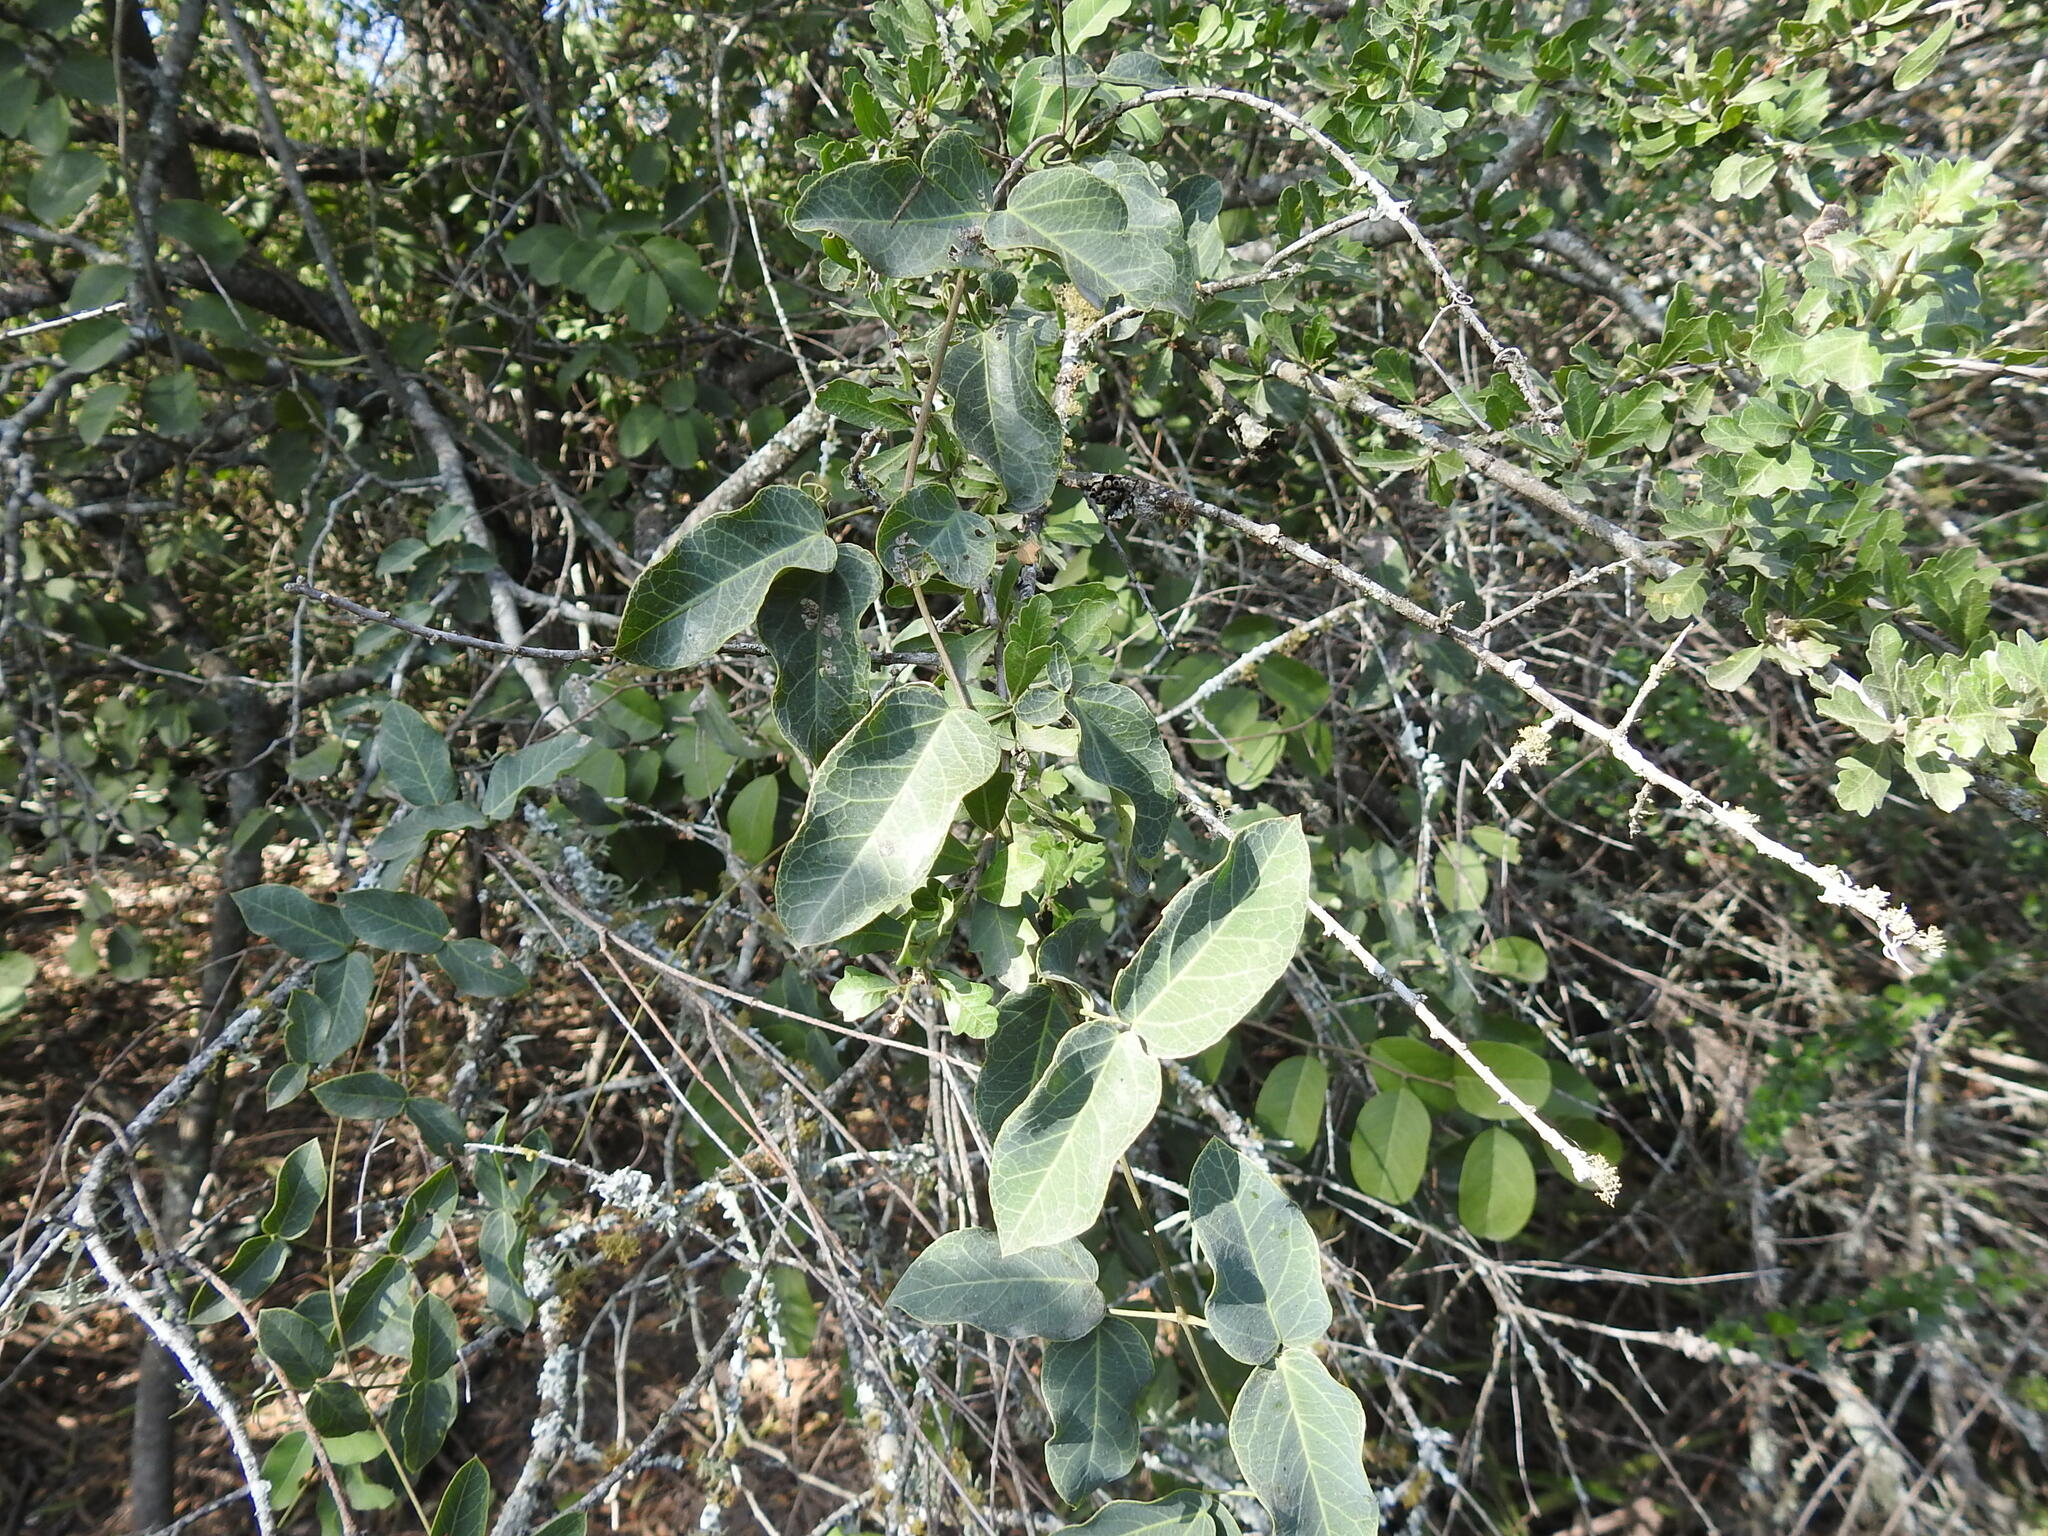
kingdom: Plantae
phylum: Tracheophyta
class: Magnoliopsida
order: Lamiales
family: Bignoniaceae
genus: Dolichandra
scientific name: Dolichandra cynanchoides
